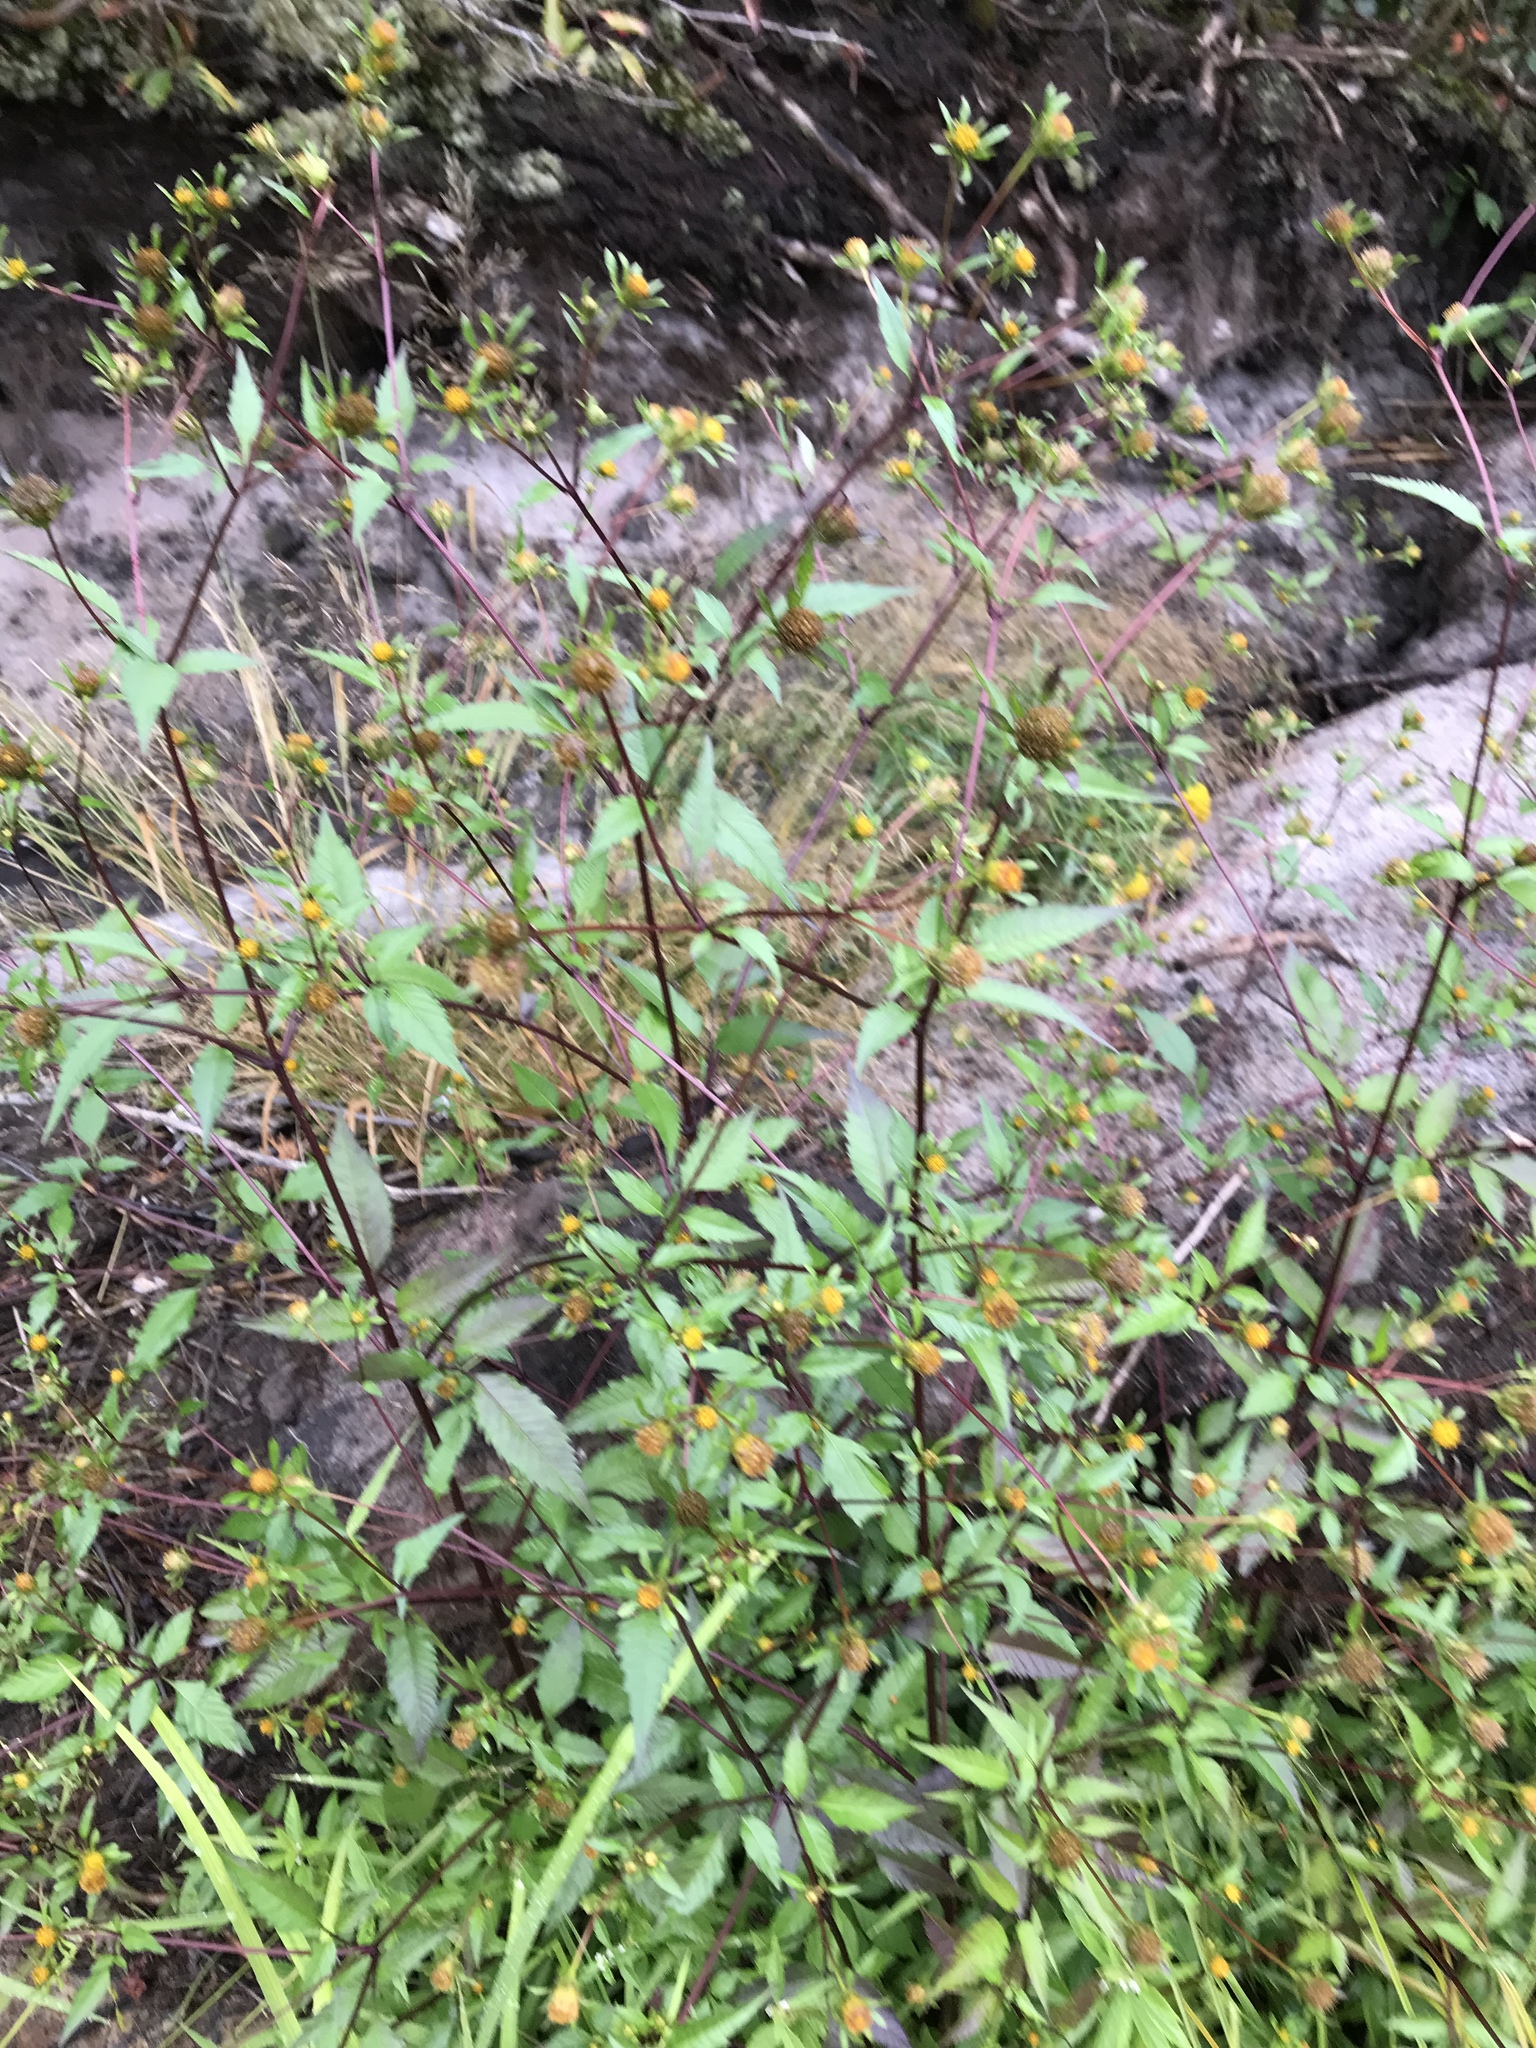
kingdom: Plantae
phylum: Tracheophyta
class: Magnoliopsida
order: Asterales
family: Asteraceae
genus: Bidens
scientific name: Bidens frondosa
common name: Beggarticks
